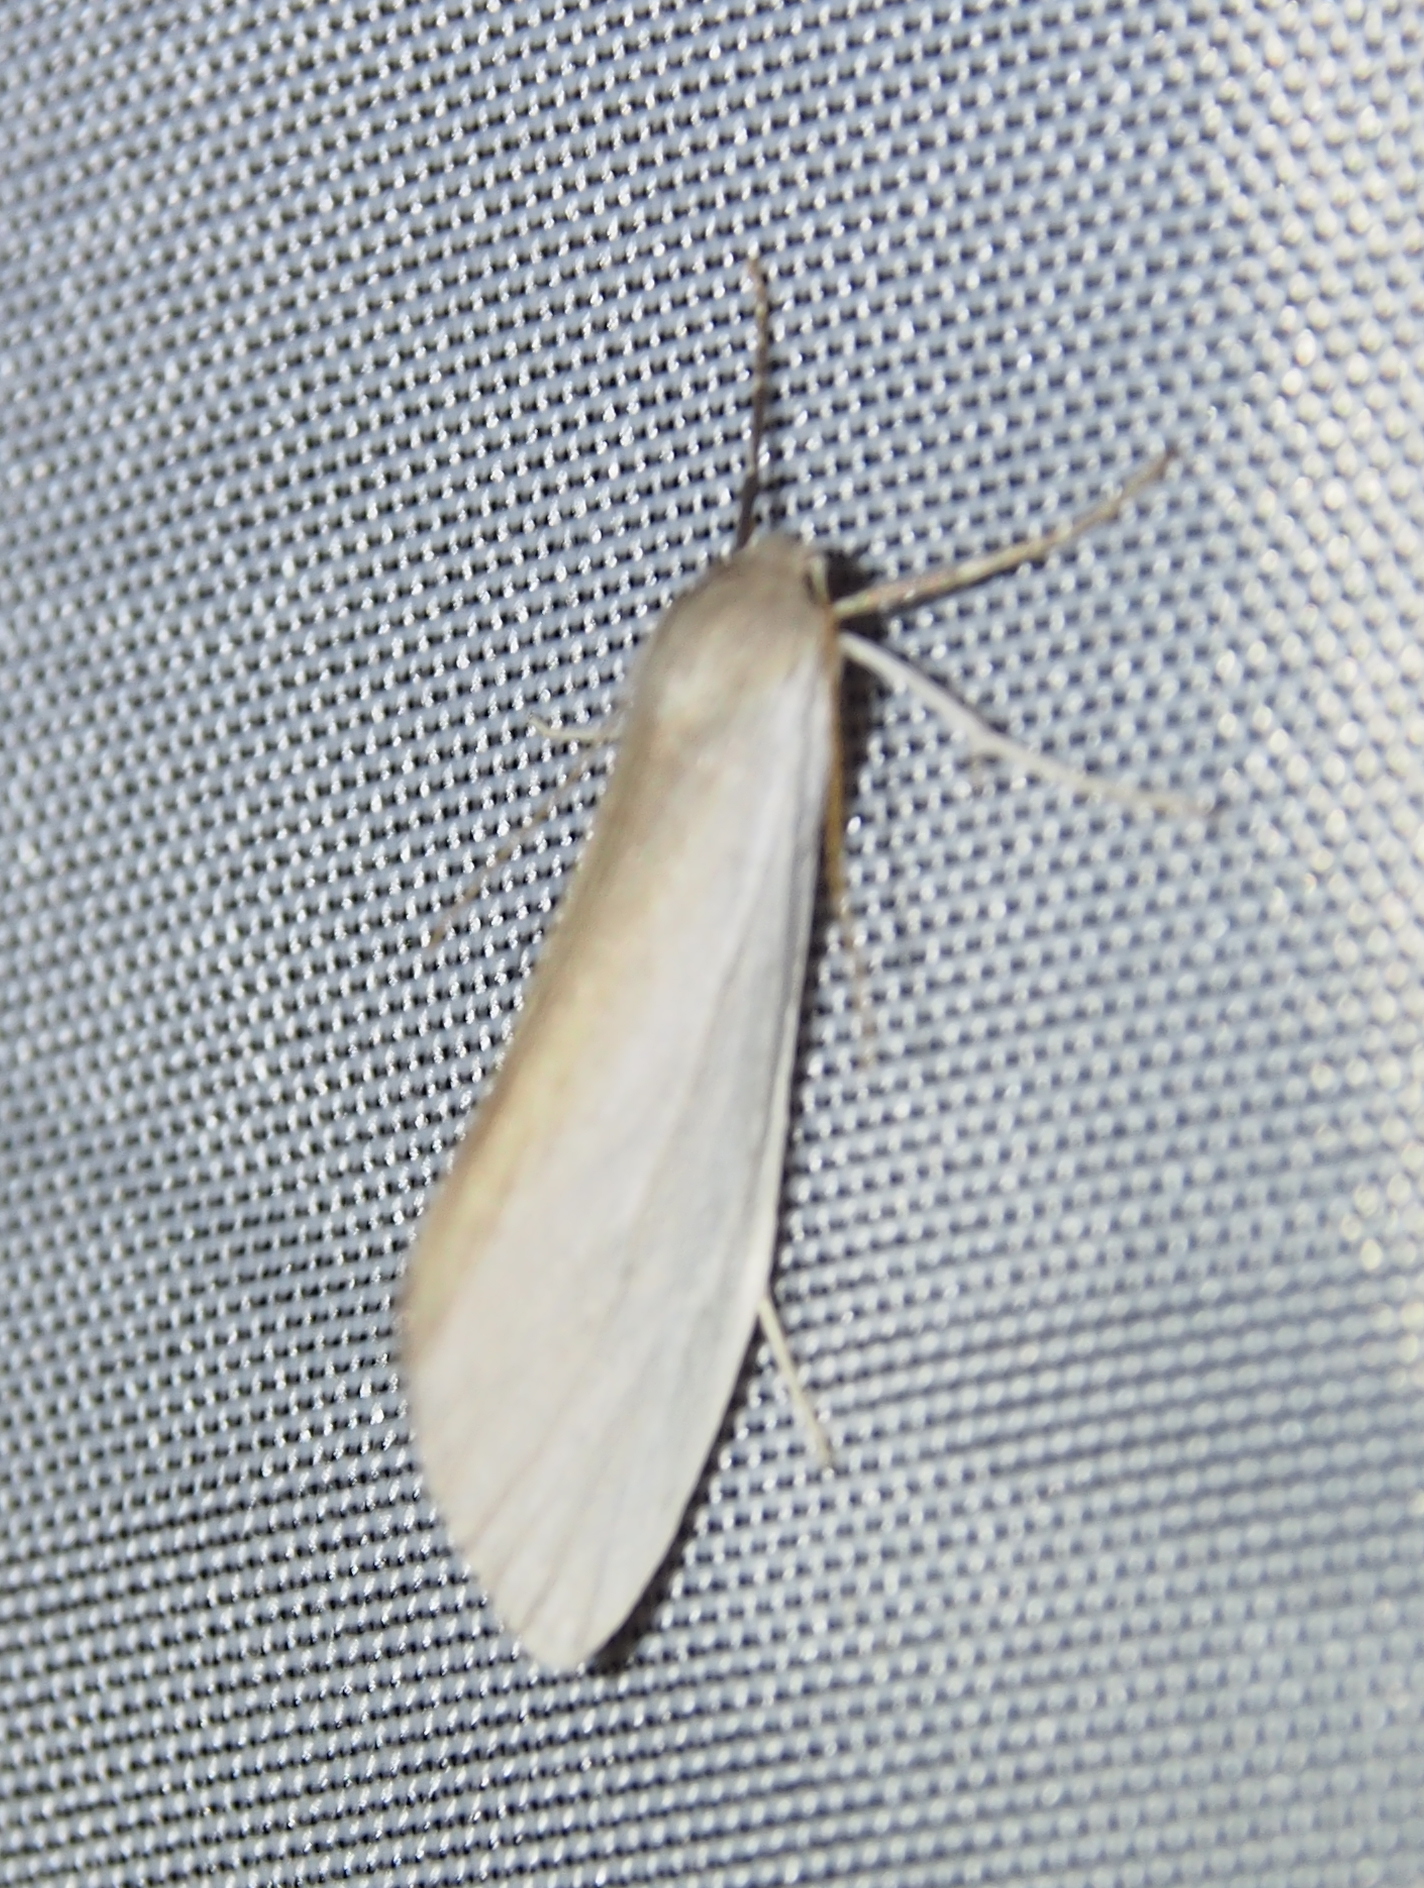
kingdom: Animalia
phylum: Arthropoda
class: Insecta
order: Lepidoptera
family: Erebidae
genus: Agylla
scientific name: Agylla asra
